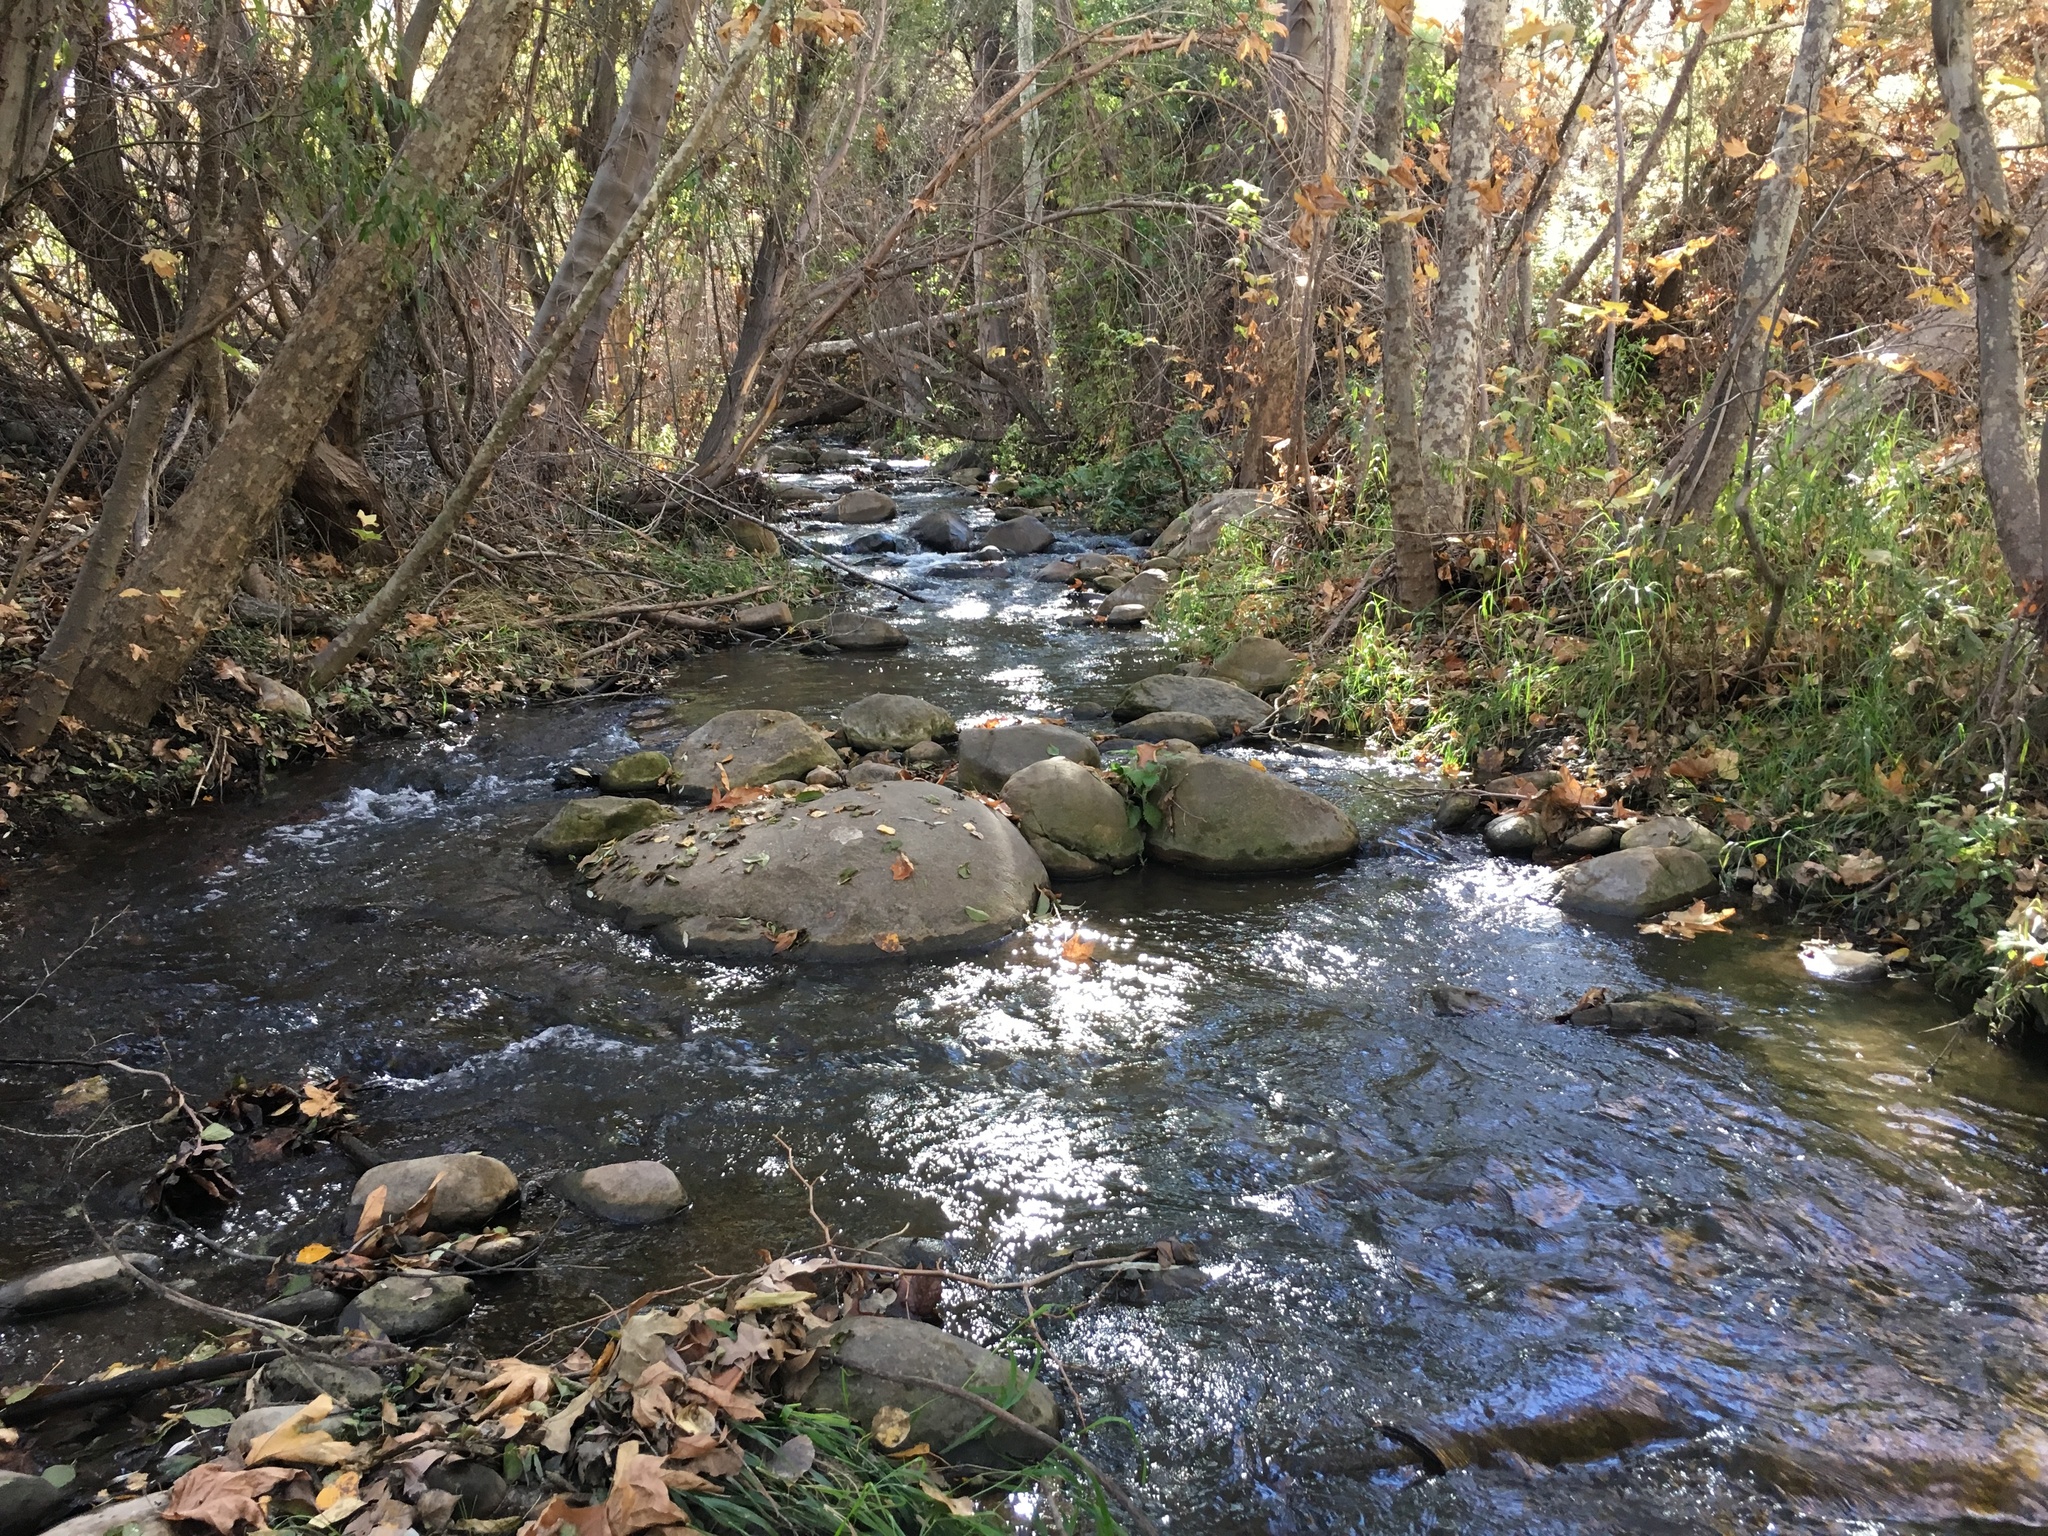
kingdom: Plantae
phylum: Tracheophyta
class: Magnoliopsida
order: Proteales
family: Platanaceae
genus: Platanus
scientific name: Platanus racemosa
